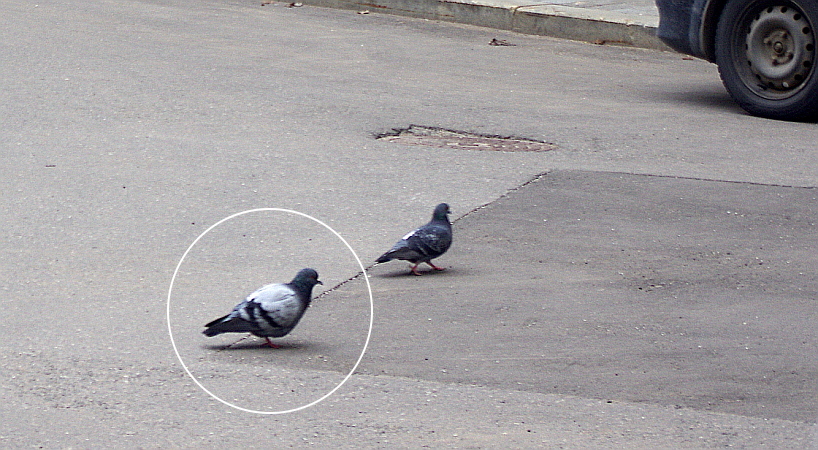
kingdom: Animalia
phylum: Chordata
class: Aves
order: Columbiformes
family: Columbidae
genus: Columba
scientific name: Columba livia
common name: Rock pigeon
